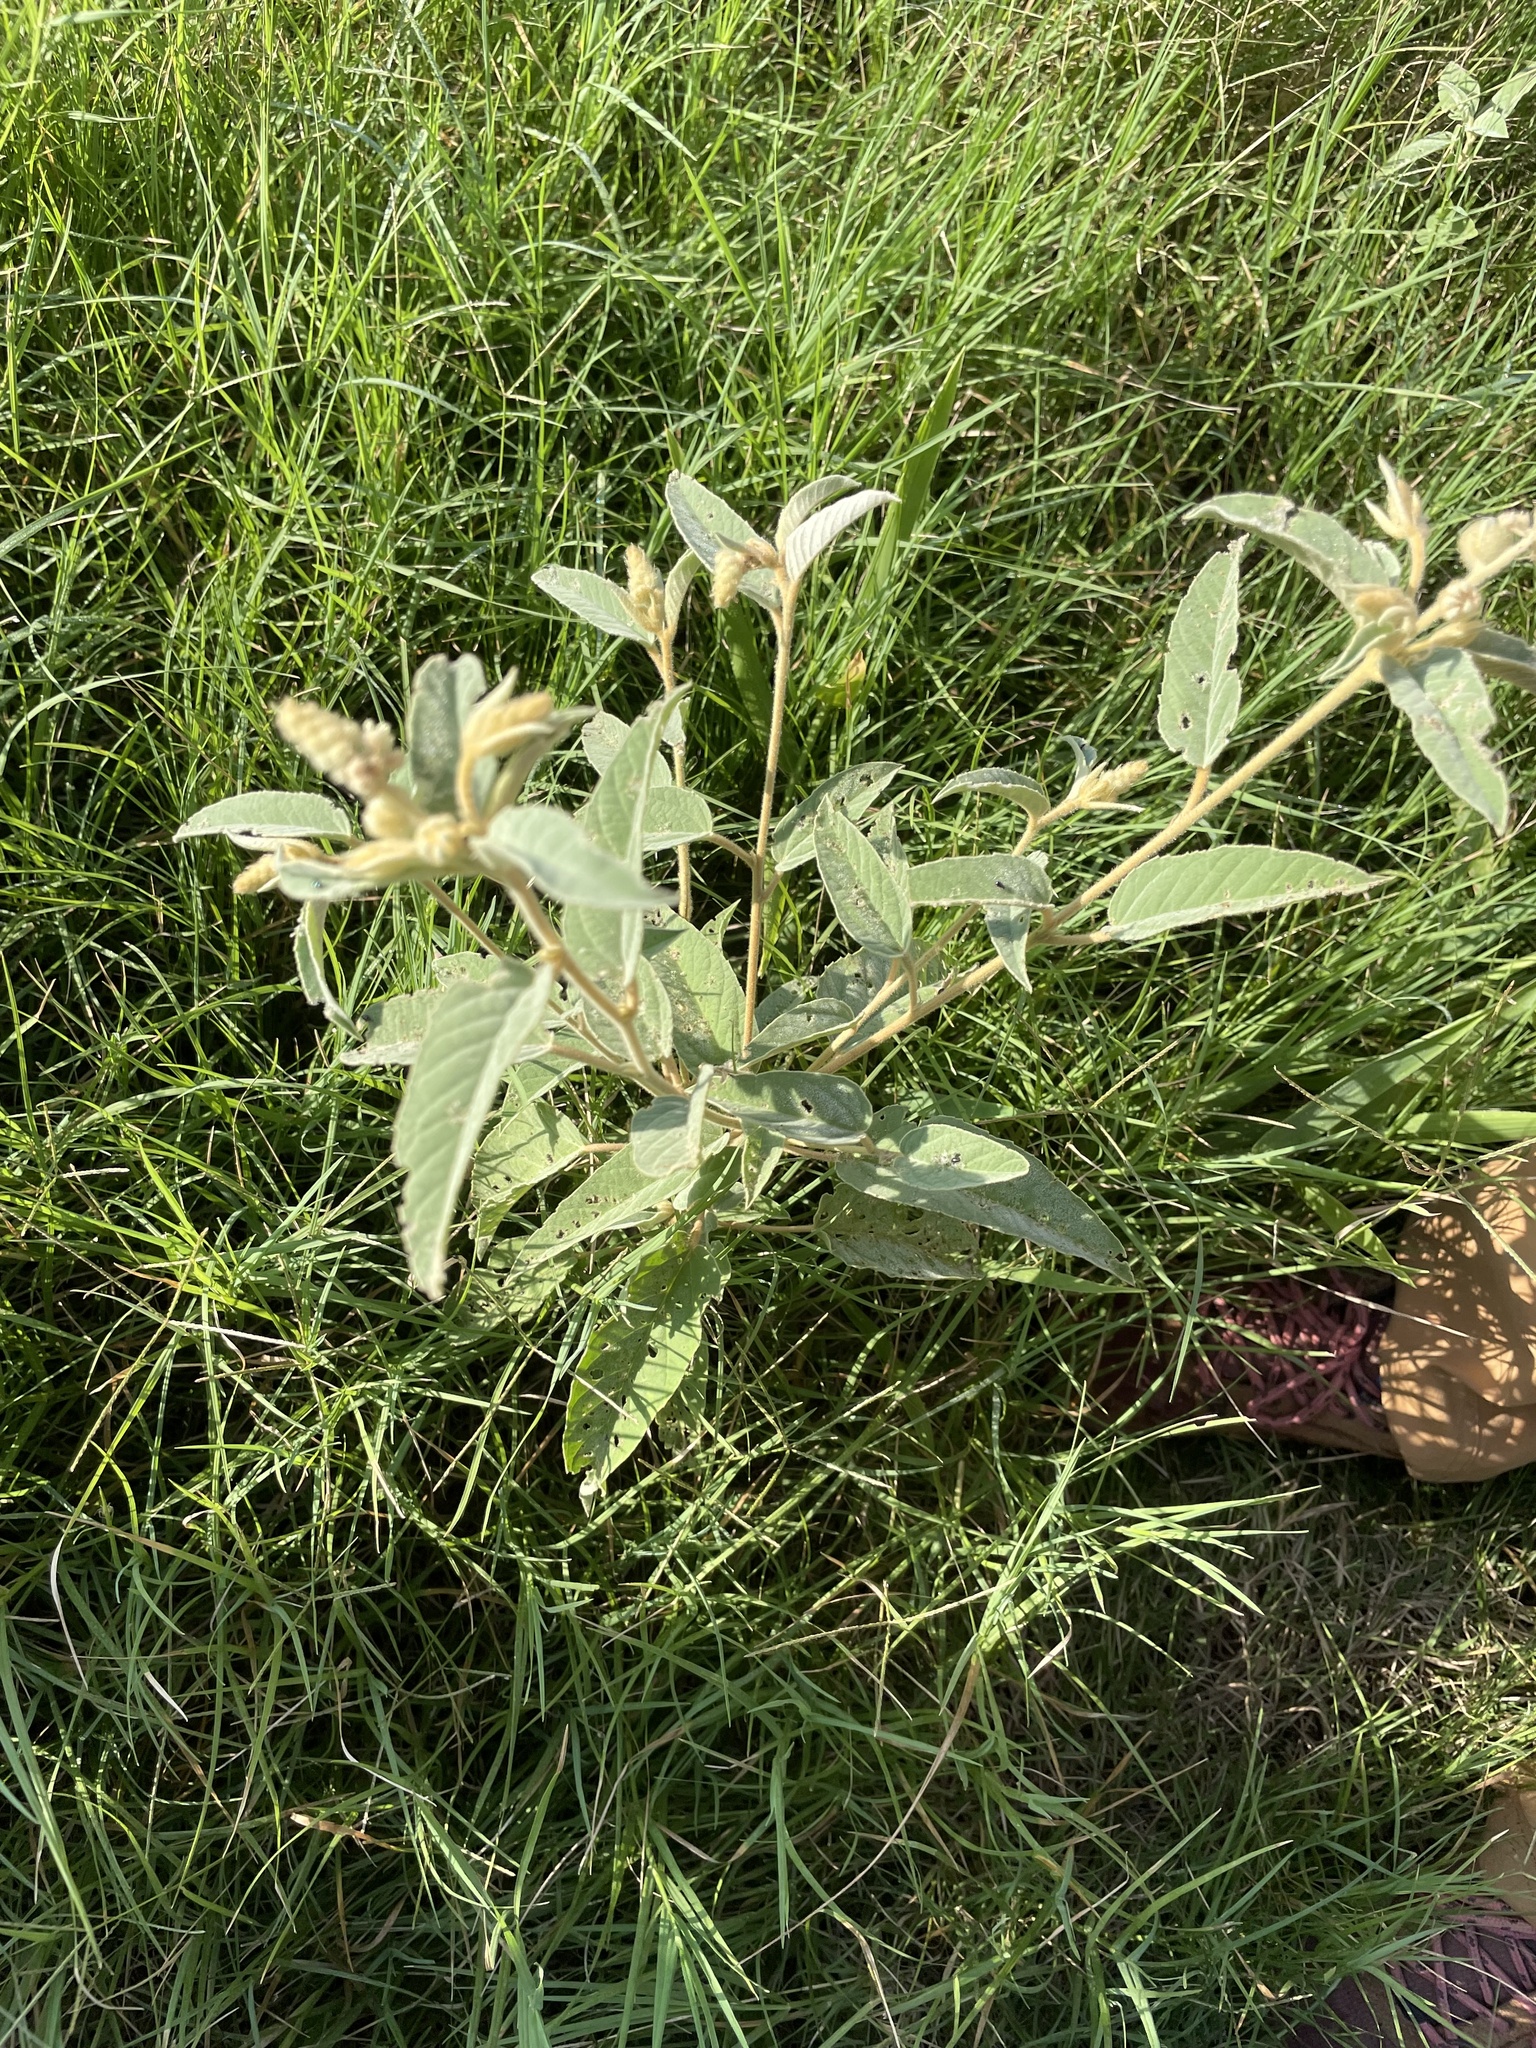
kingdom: Plantae
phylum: Tracheophyta
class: Magnoliopsida
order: Malpighiales
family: Euphorbiaceae
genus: Croton
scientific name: Croton lindheimeri
